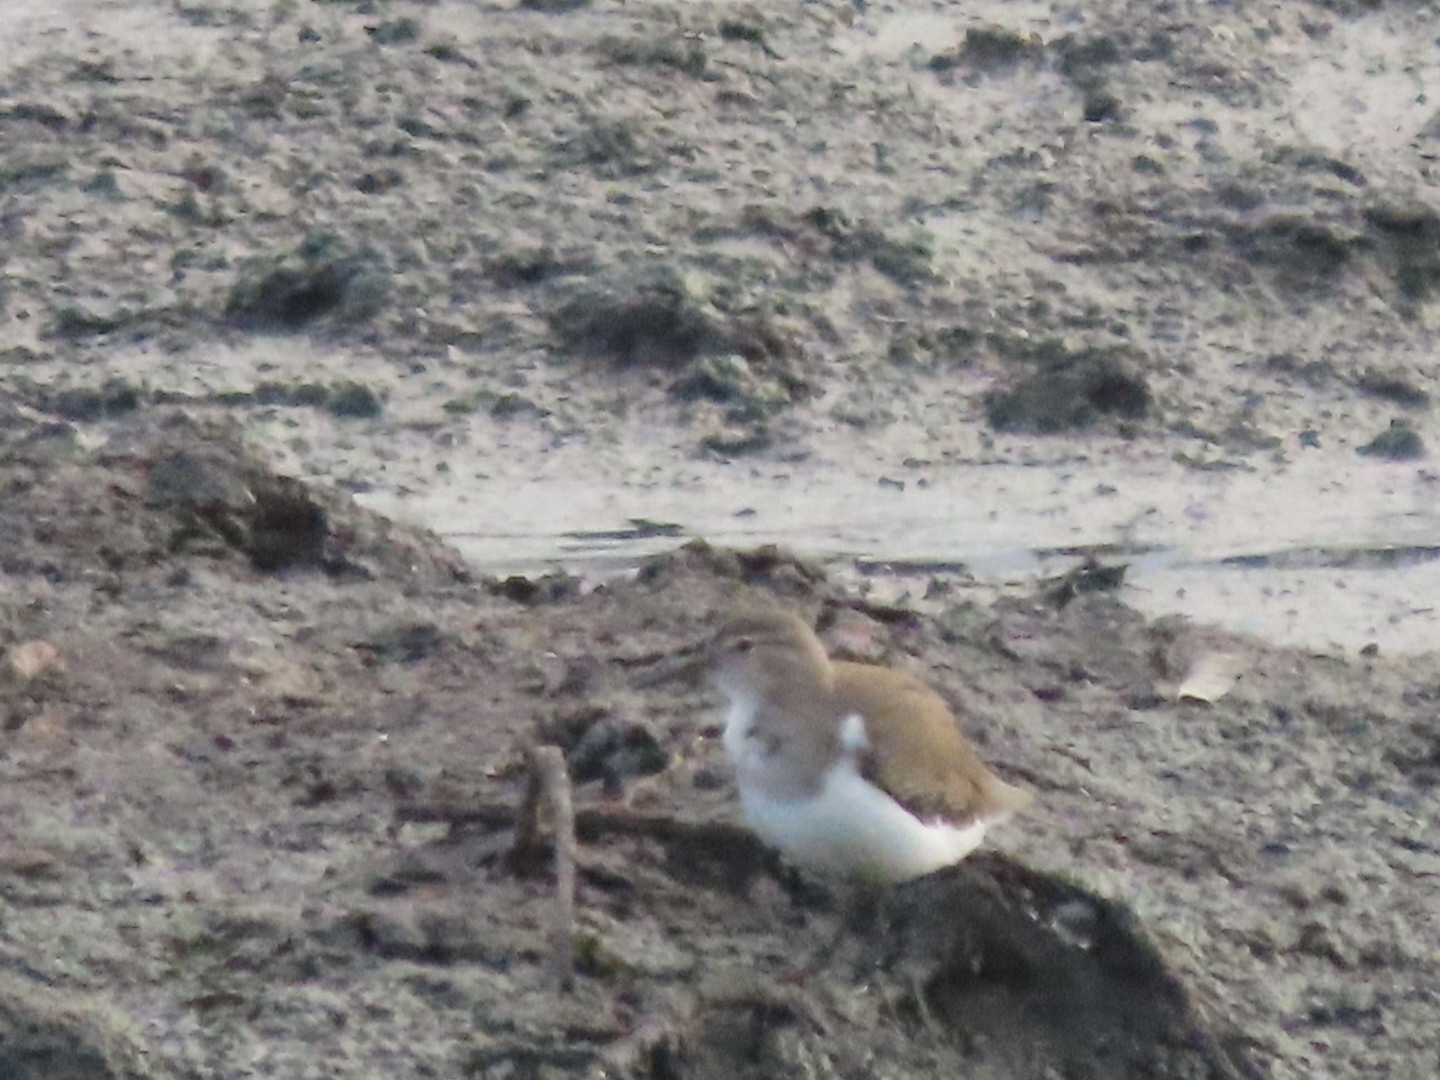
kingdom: Animalia
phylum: Chordata
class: Aves
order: Charadriiformes
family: Scolopacidae
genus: Actitis
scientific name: Actitis macularius
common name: Spotted sandpiper
